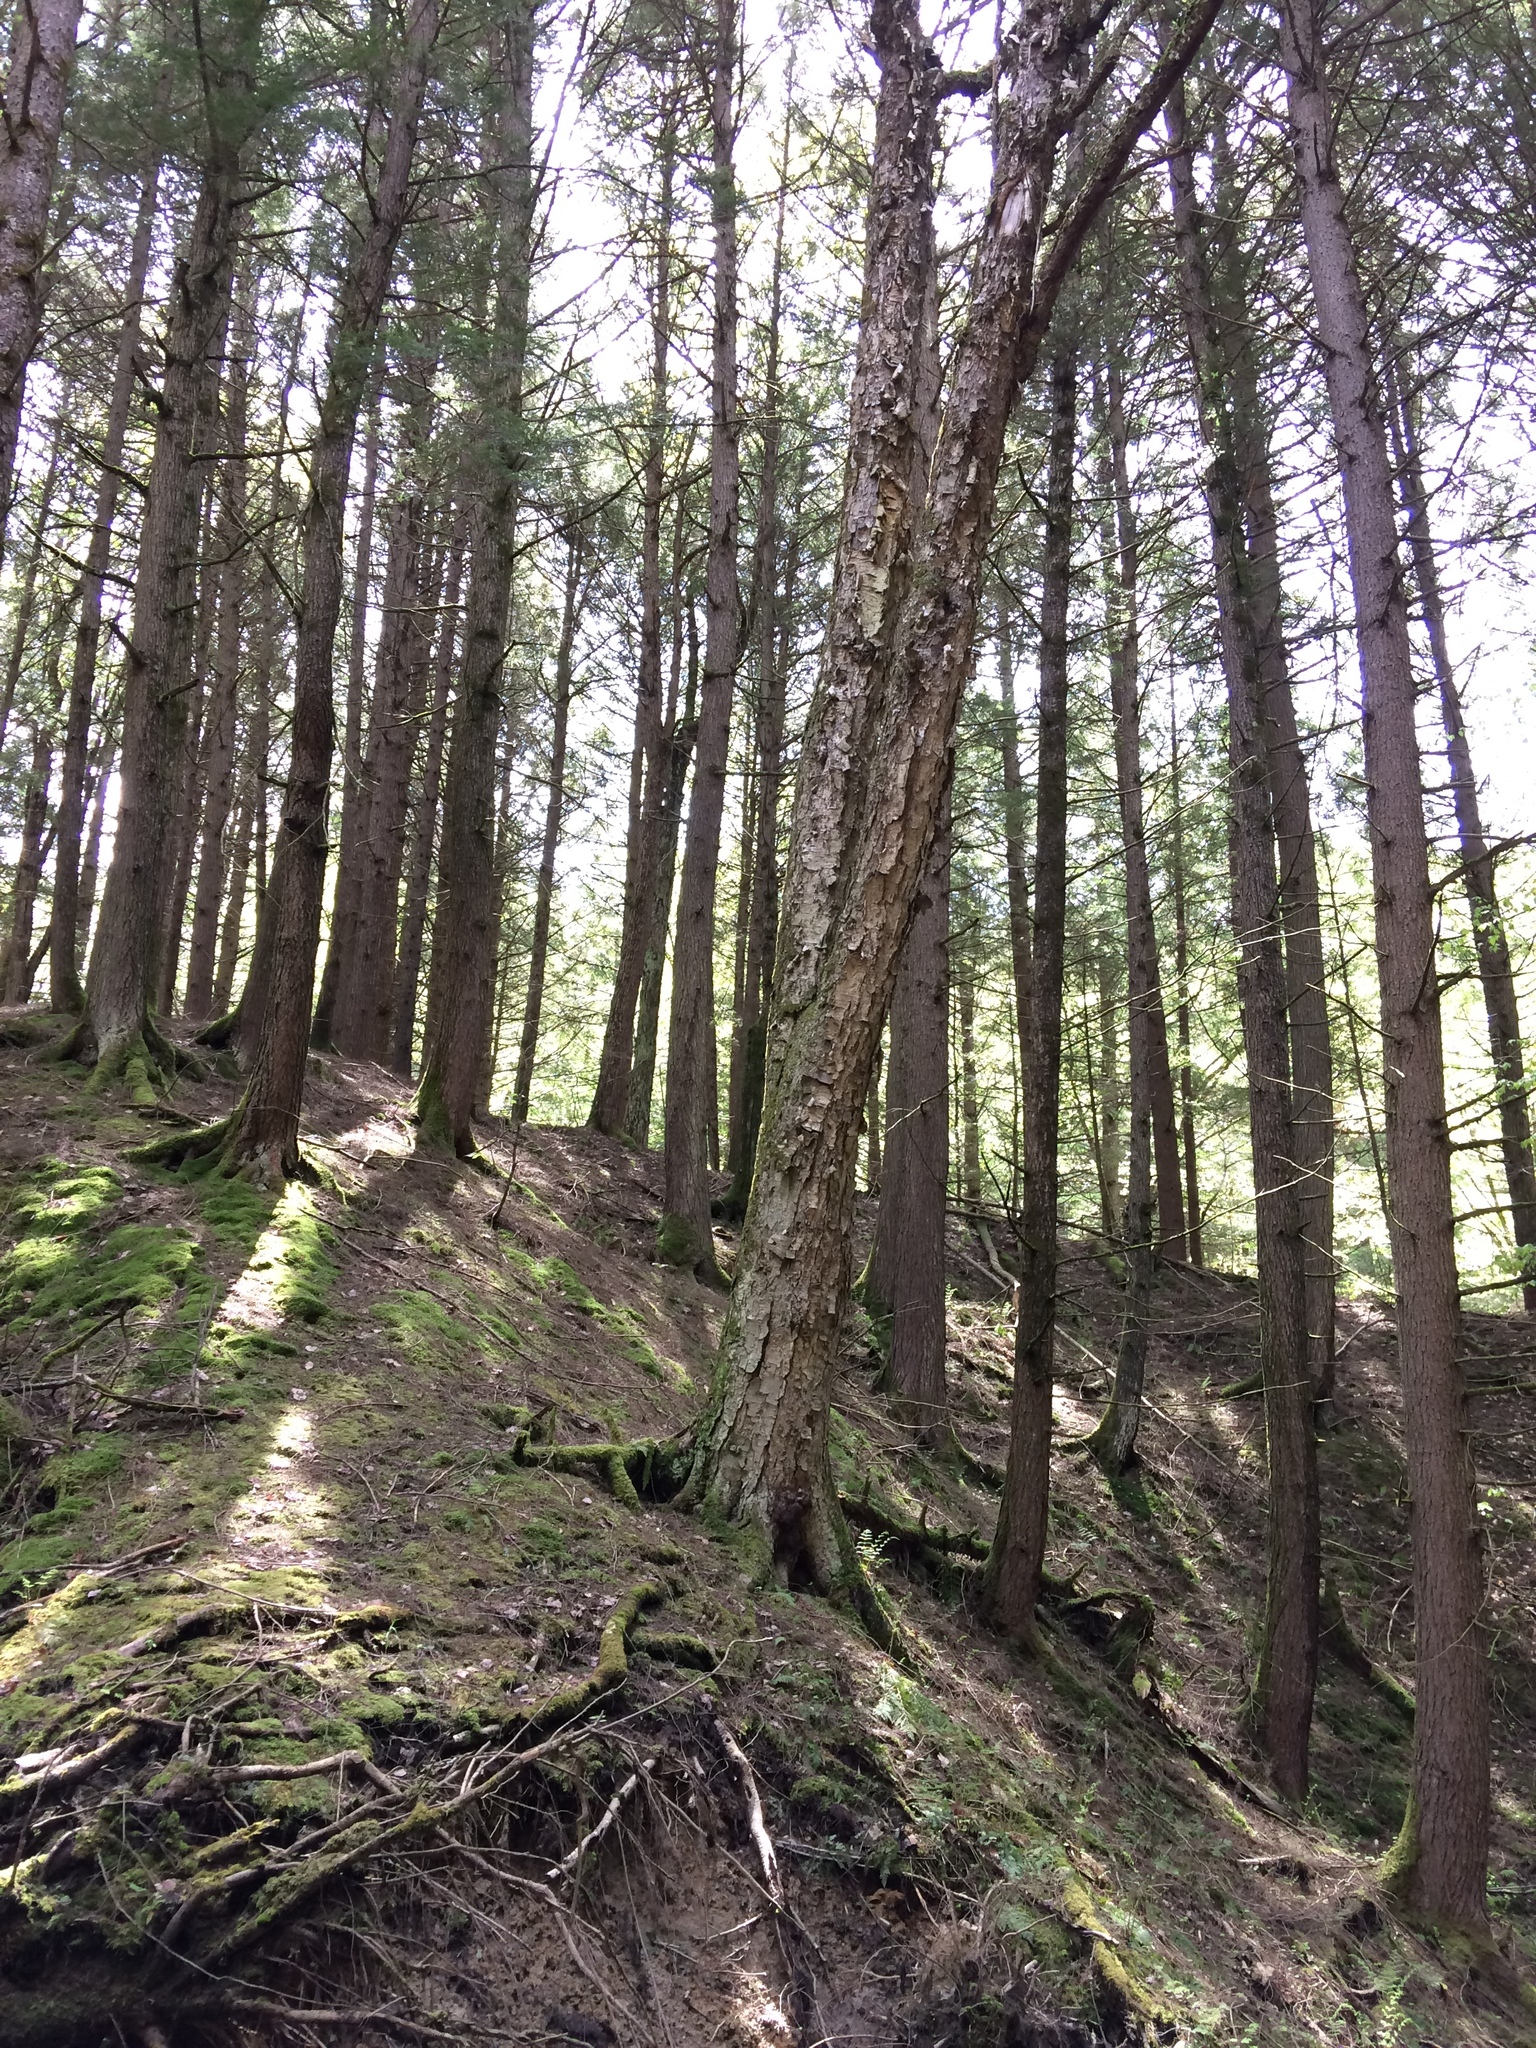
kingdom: Plantae
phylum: Tracheophyta
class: Pinopsida
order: Pinales
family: Pinaceae
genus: Tsuga
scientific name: Tsuga canadensis
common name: Eastern hemlock
